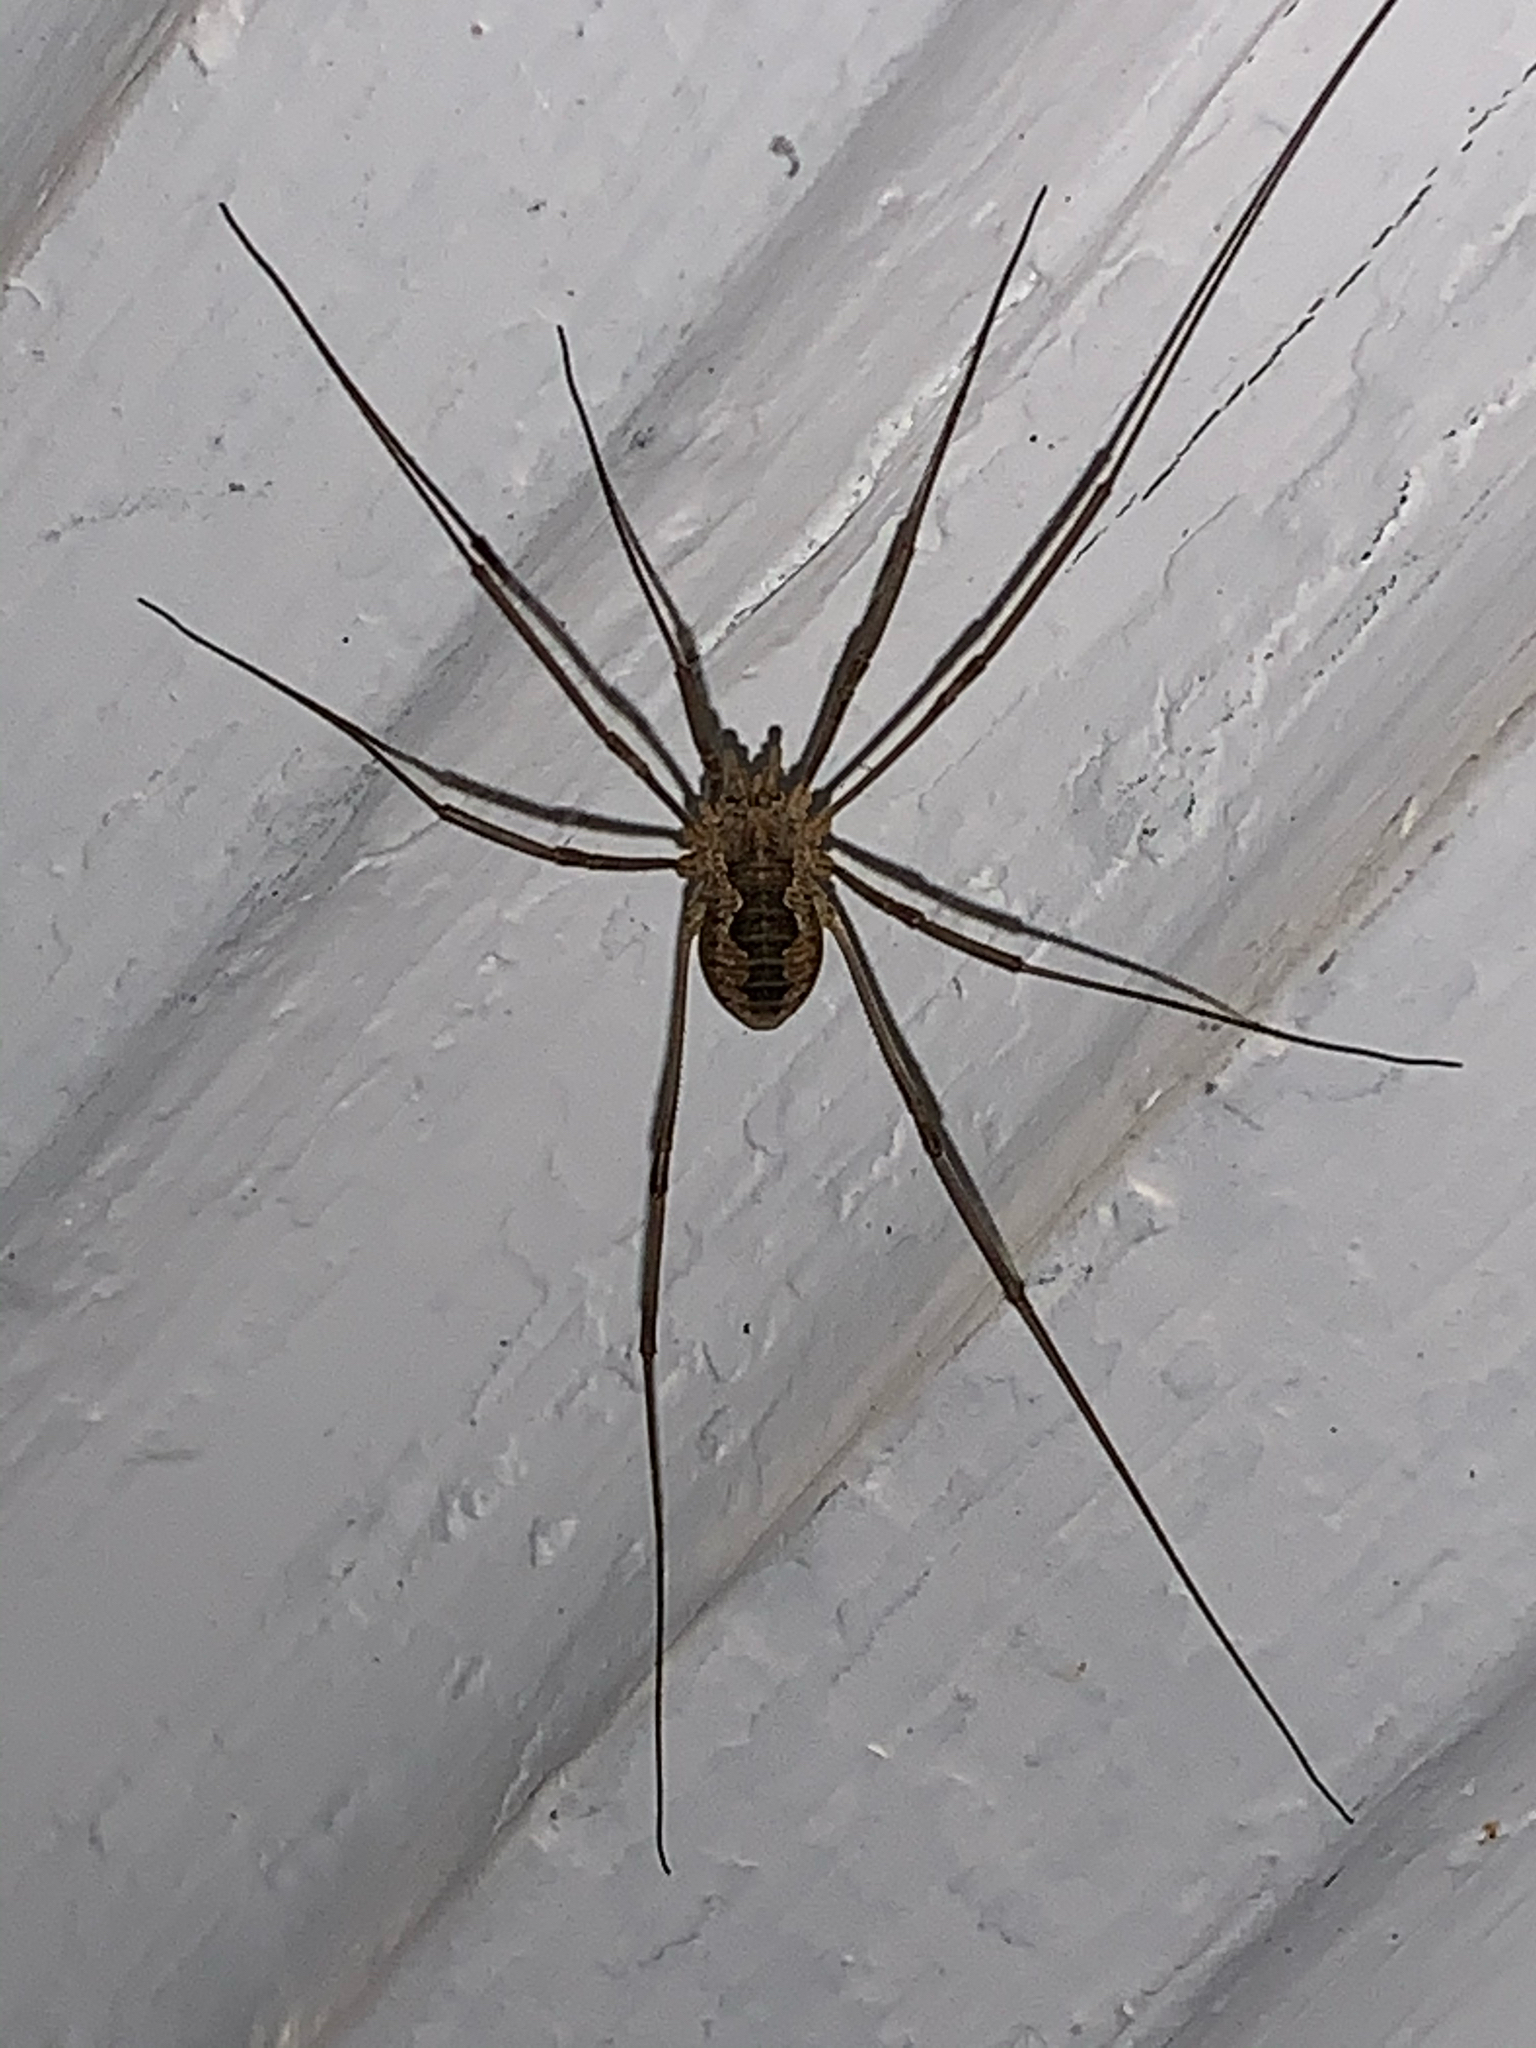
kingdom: Animalia
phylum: Arthropoda
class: Arachnida
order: Opiliones
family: Phalangiidae
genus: Phalangium
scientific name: Phalangium opilio
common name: Daddy longleg
